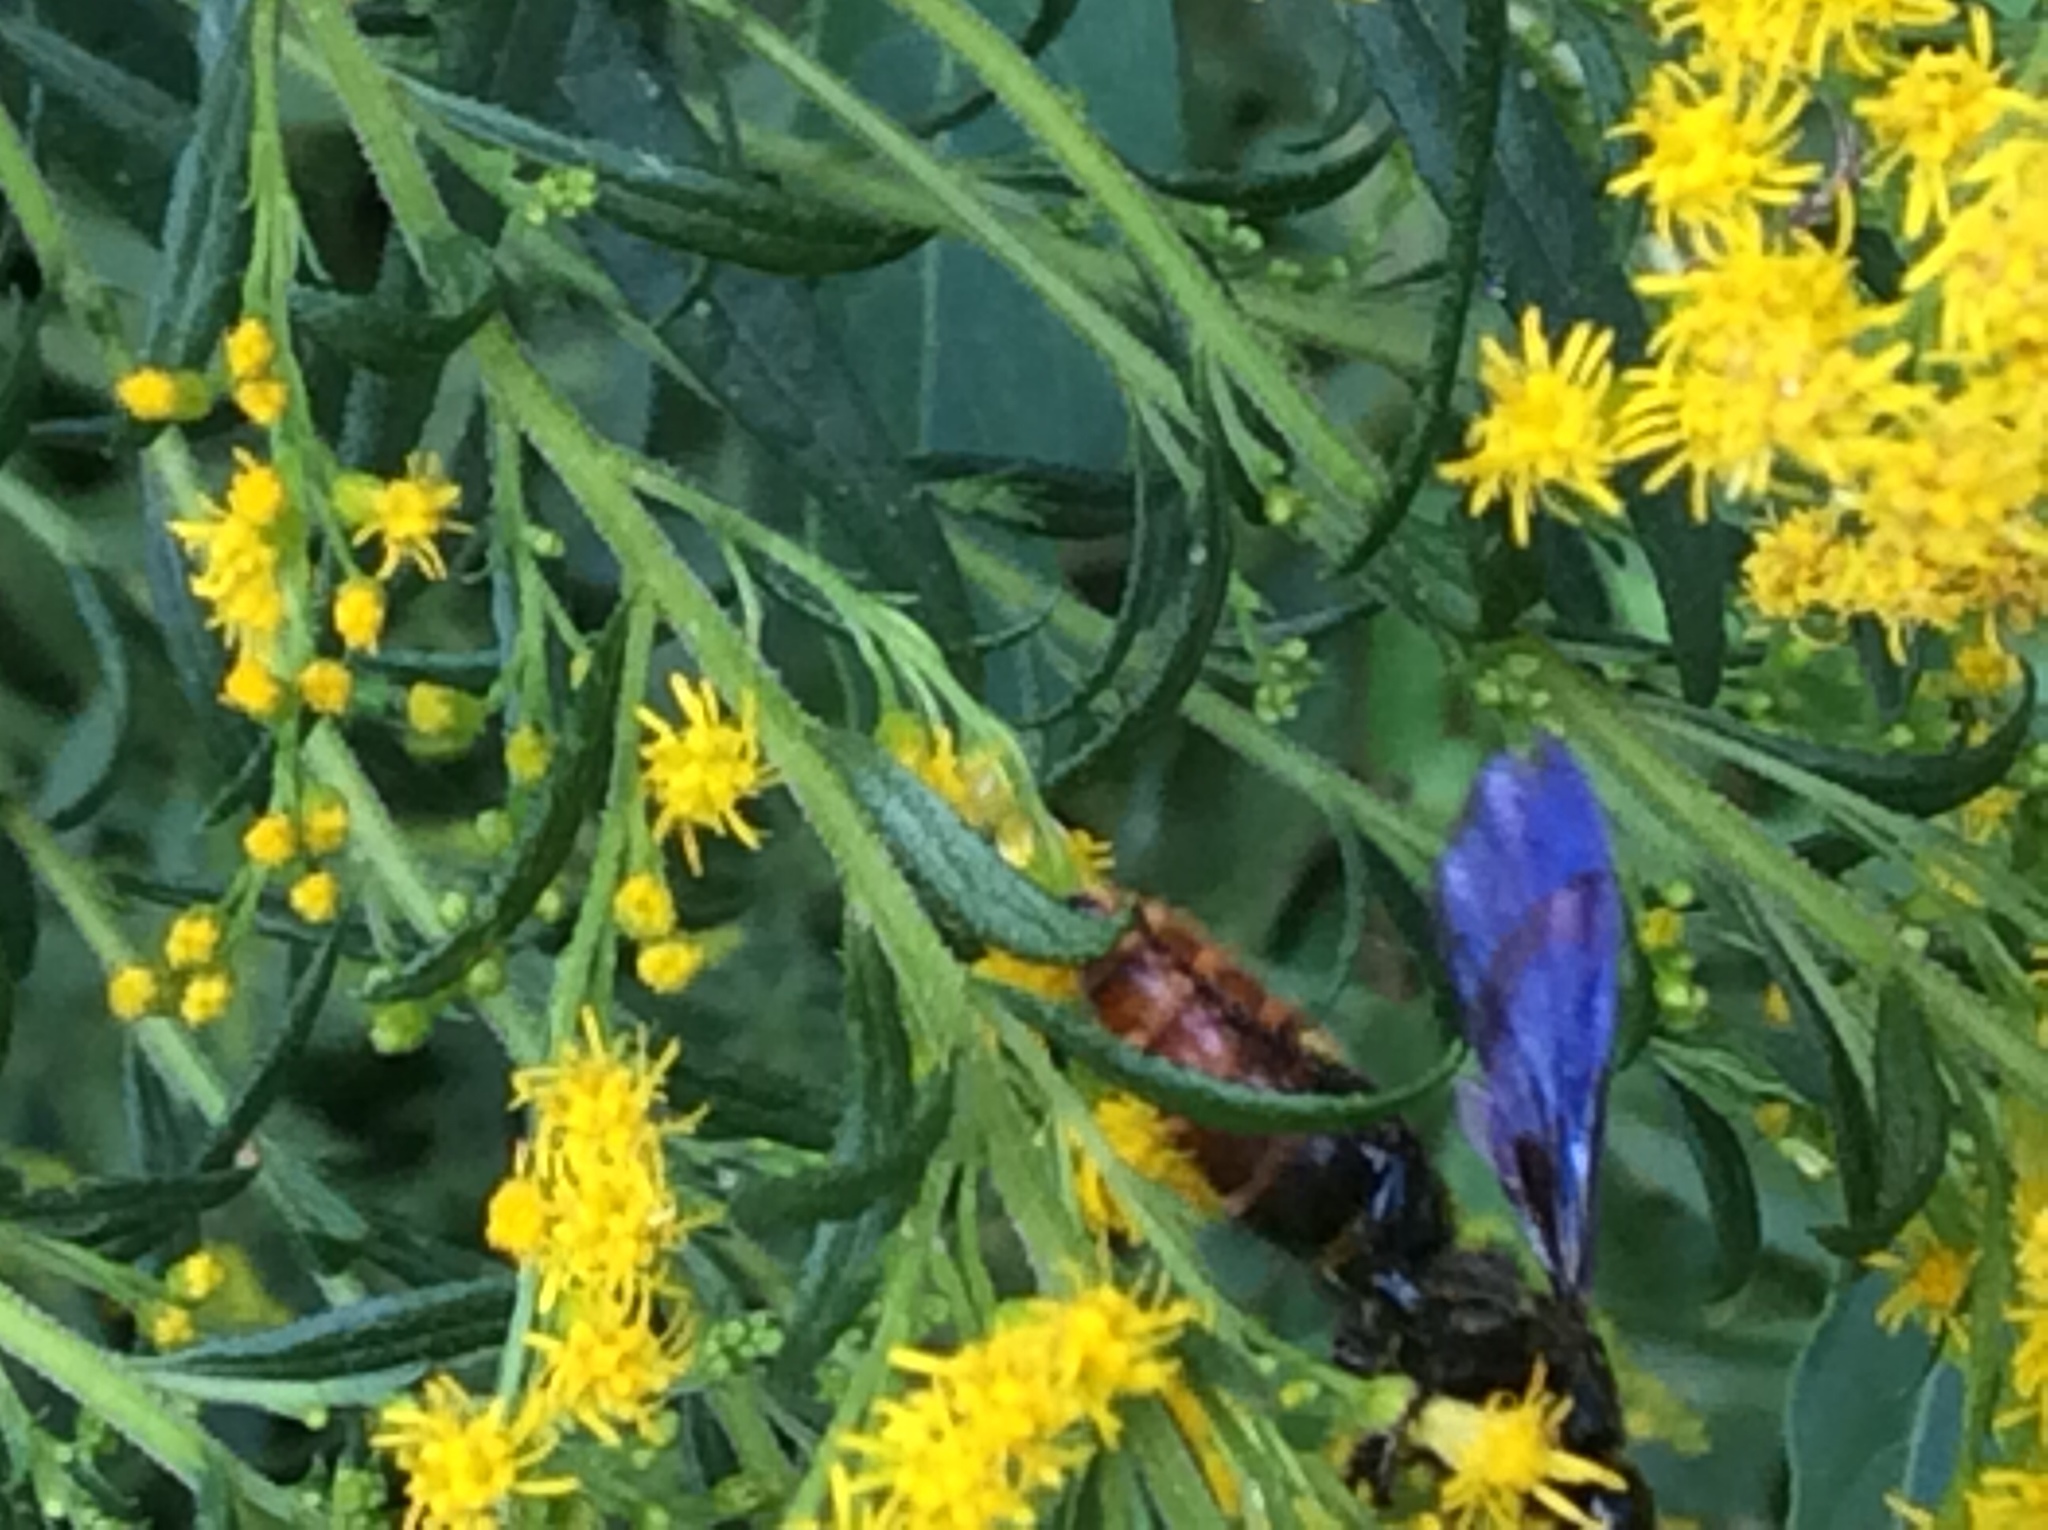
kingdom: Animalia
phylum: Arthropoda
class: Insecta
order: Hymenoptera
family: Scoliidae
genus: Scolia
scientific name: Scolia dubia
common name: Blue-winged scoliid wasp
